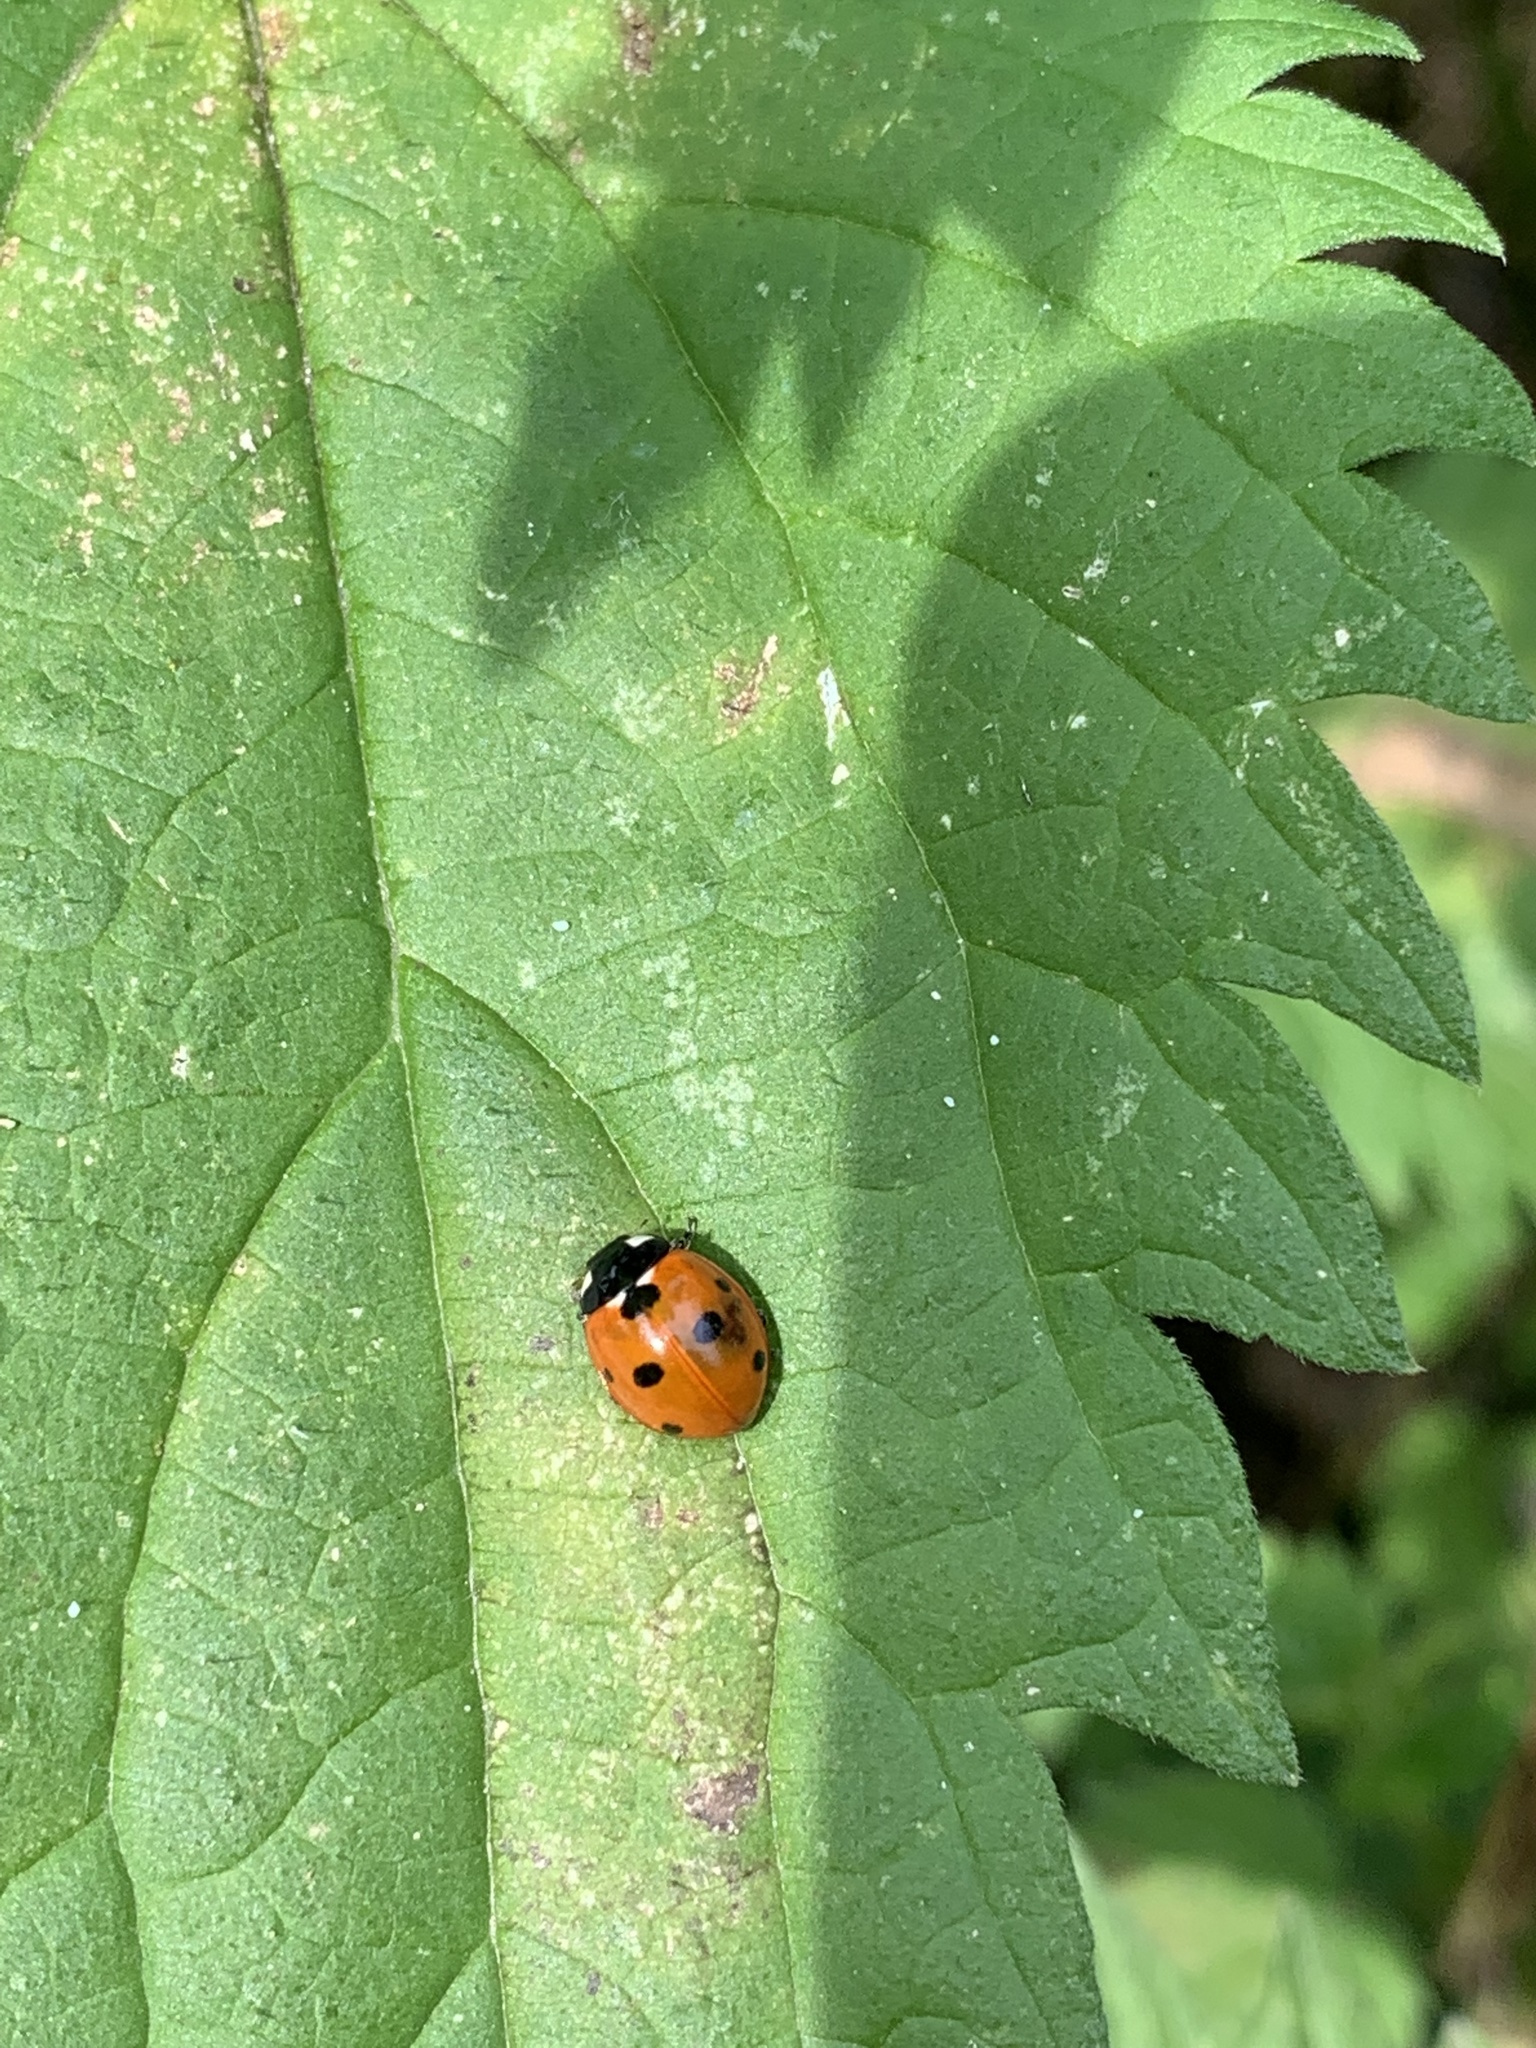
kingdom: Animalia
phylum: Arthropoda
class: Insecta
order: Coleoptera
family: Coccinellidae
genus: Coccinella
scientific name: Coccinella septempunctata
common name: Sevenspotted lady beetle
